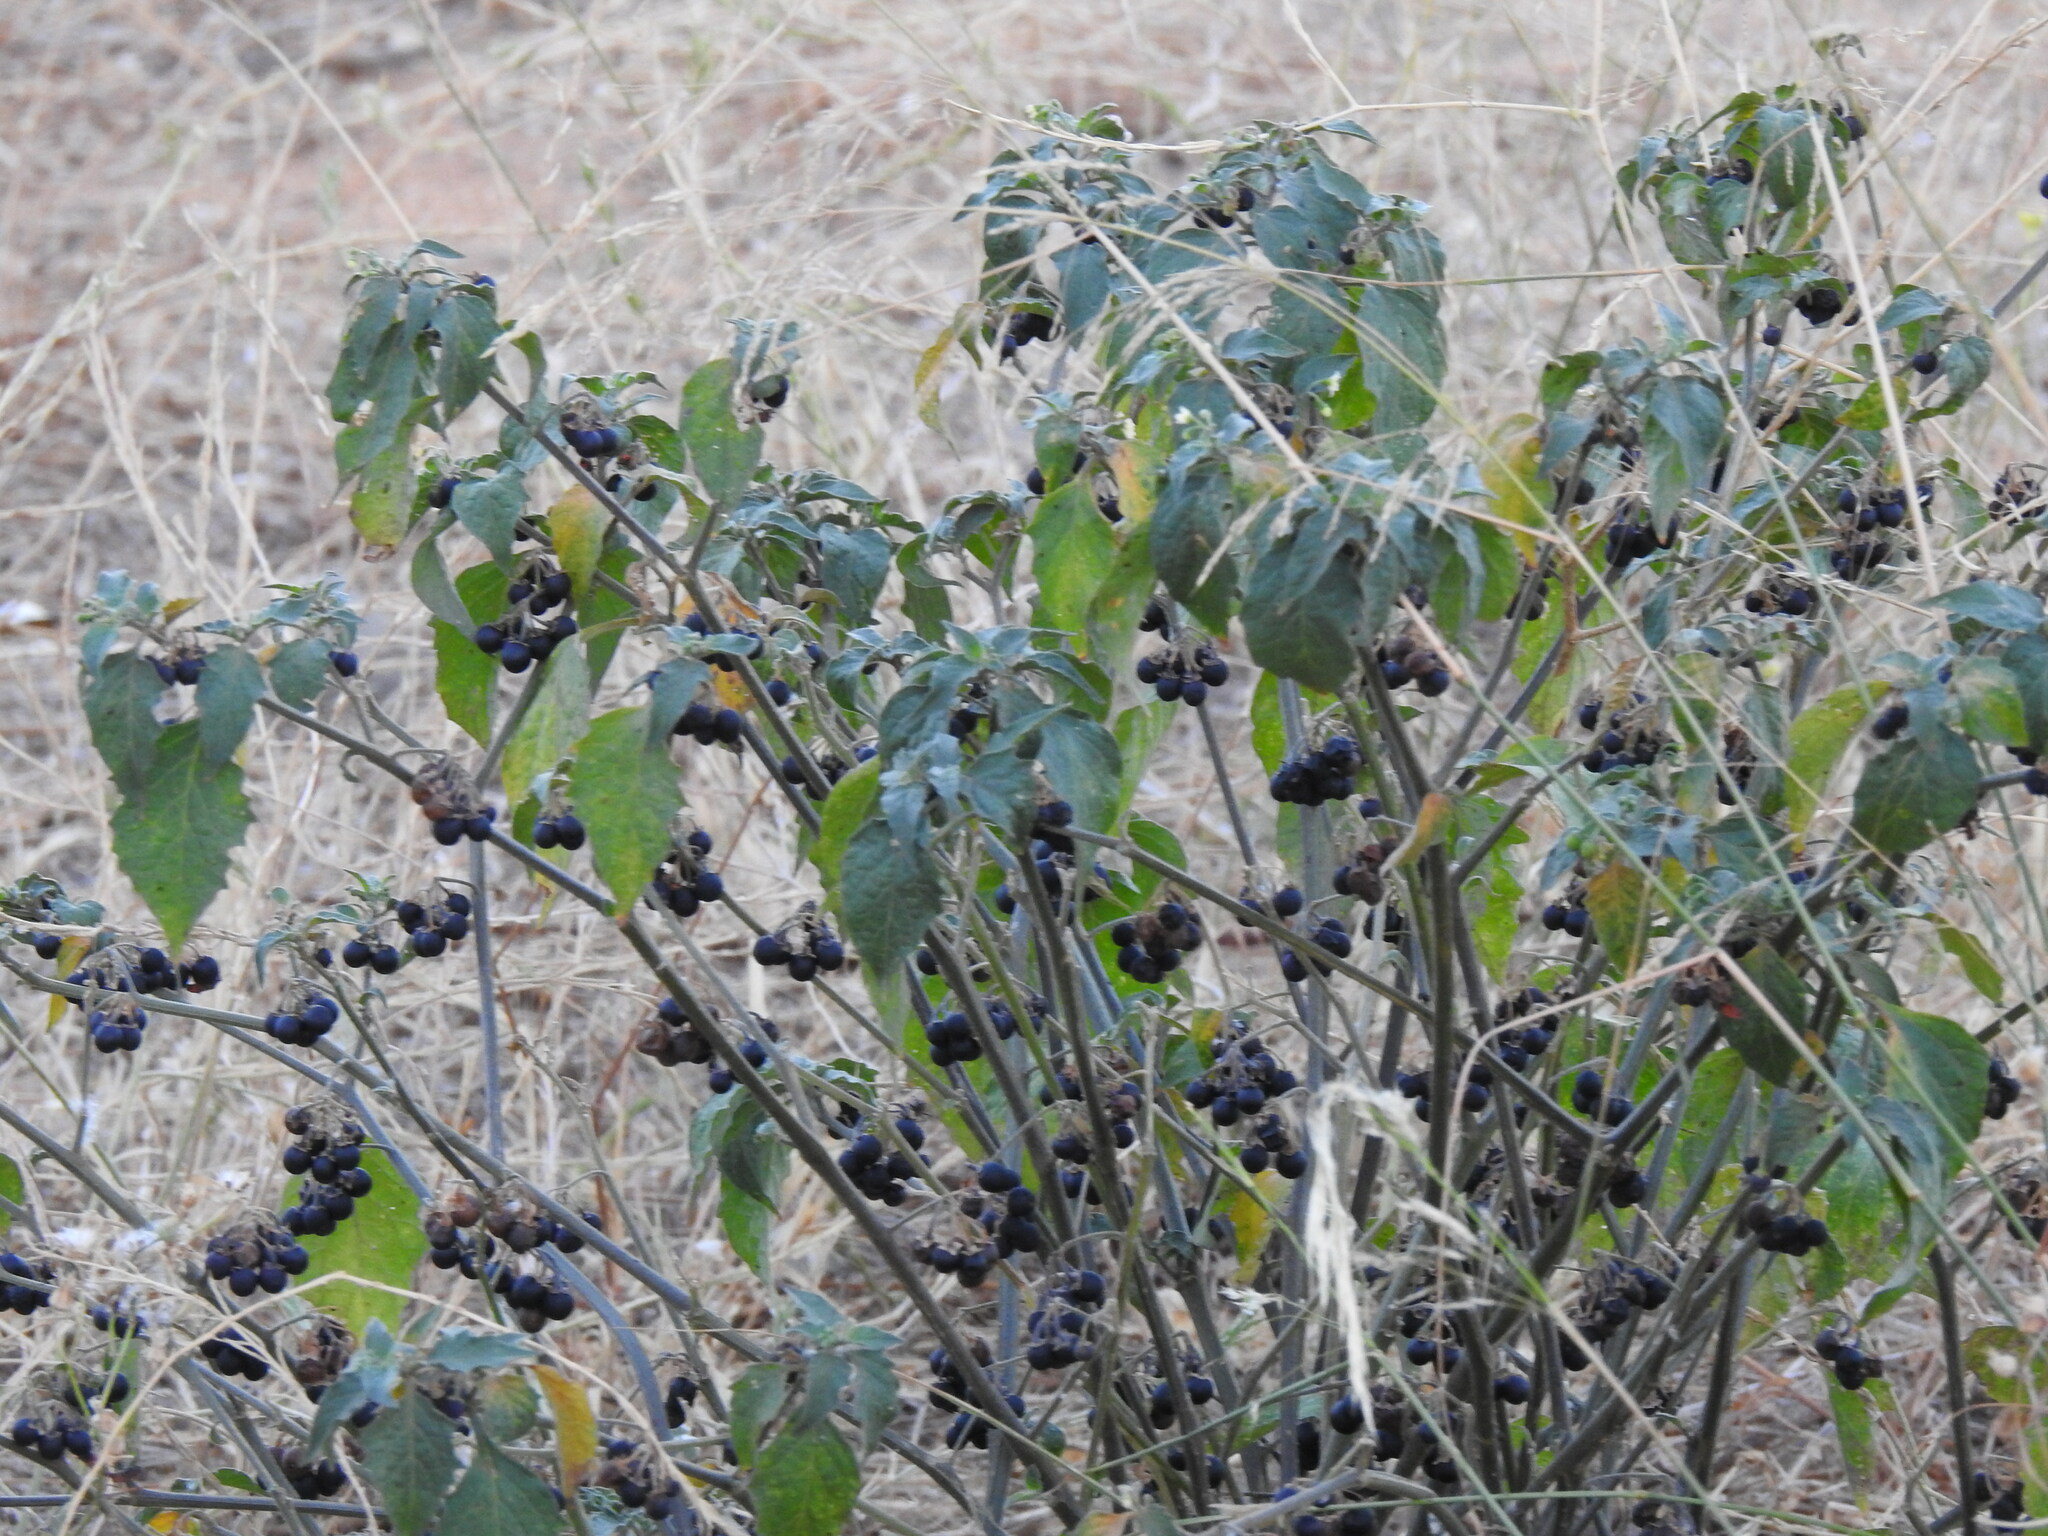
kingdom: Plantae
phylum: Tracheophyta
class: Magnoliopsida
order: Solanales
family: Solanaceae
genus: Solanum
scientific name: Solanum nigrum
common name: Black nightshade
